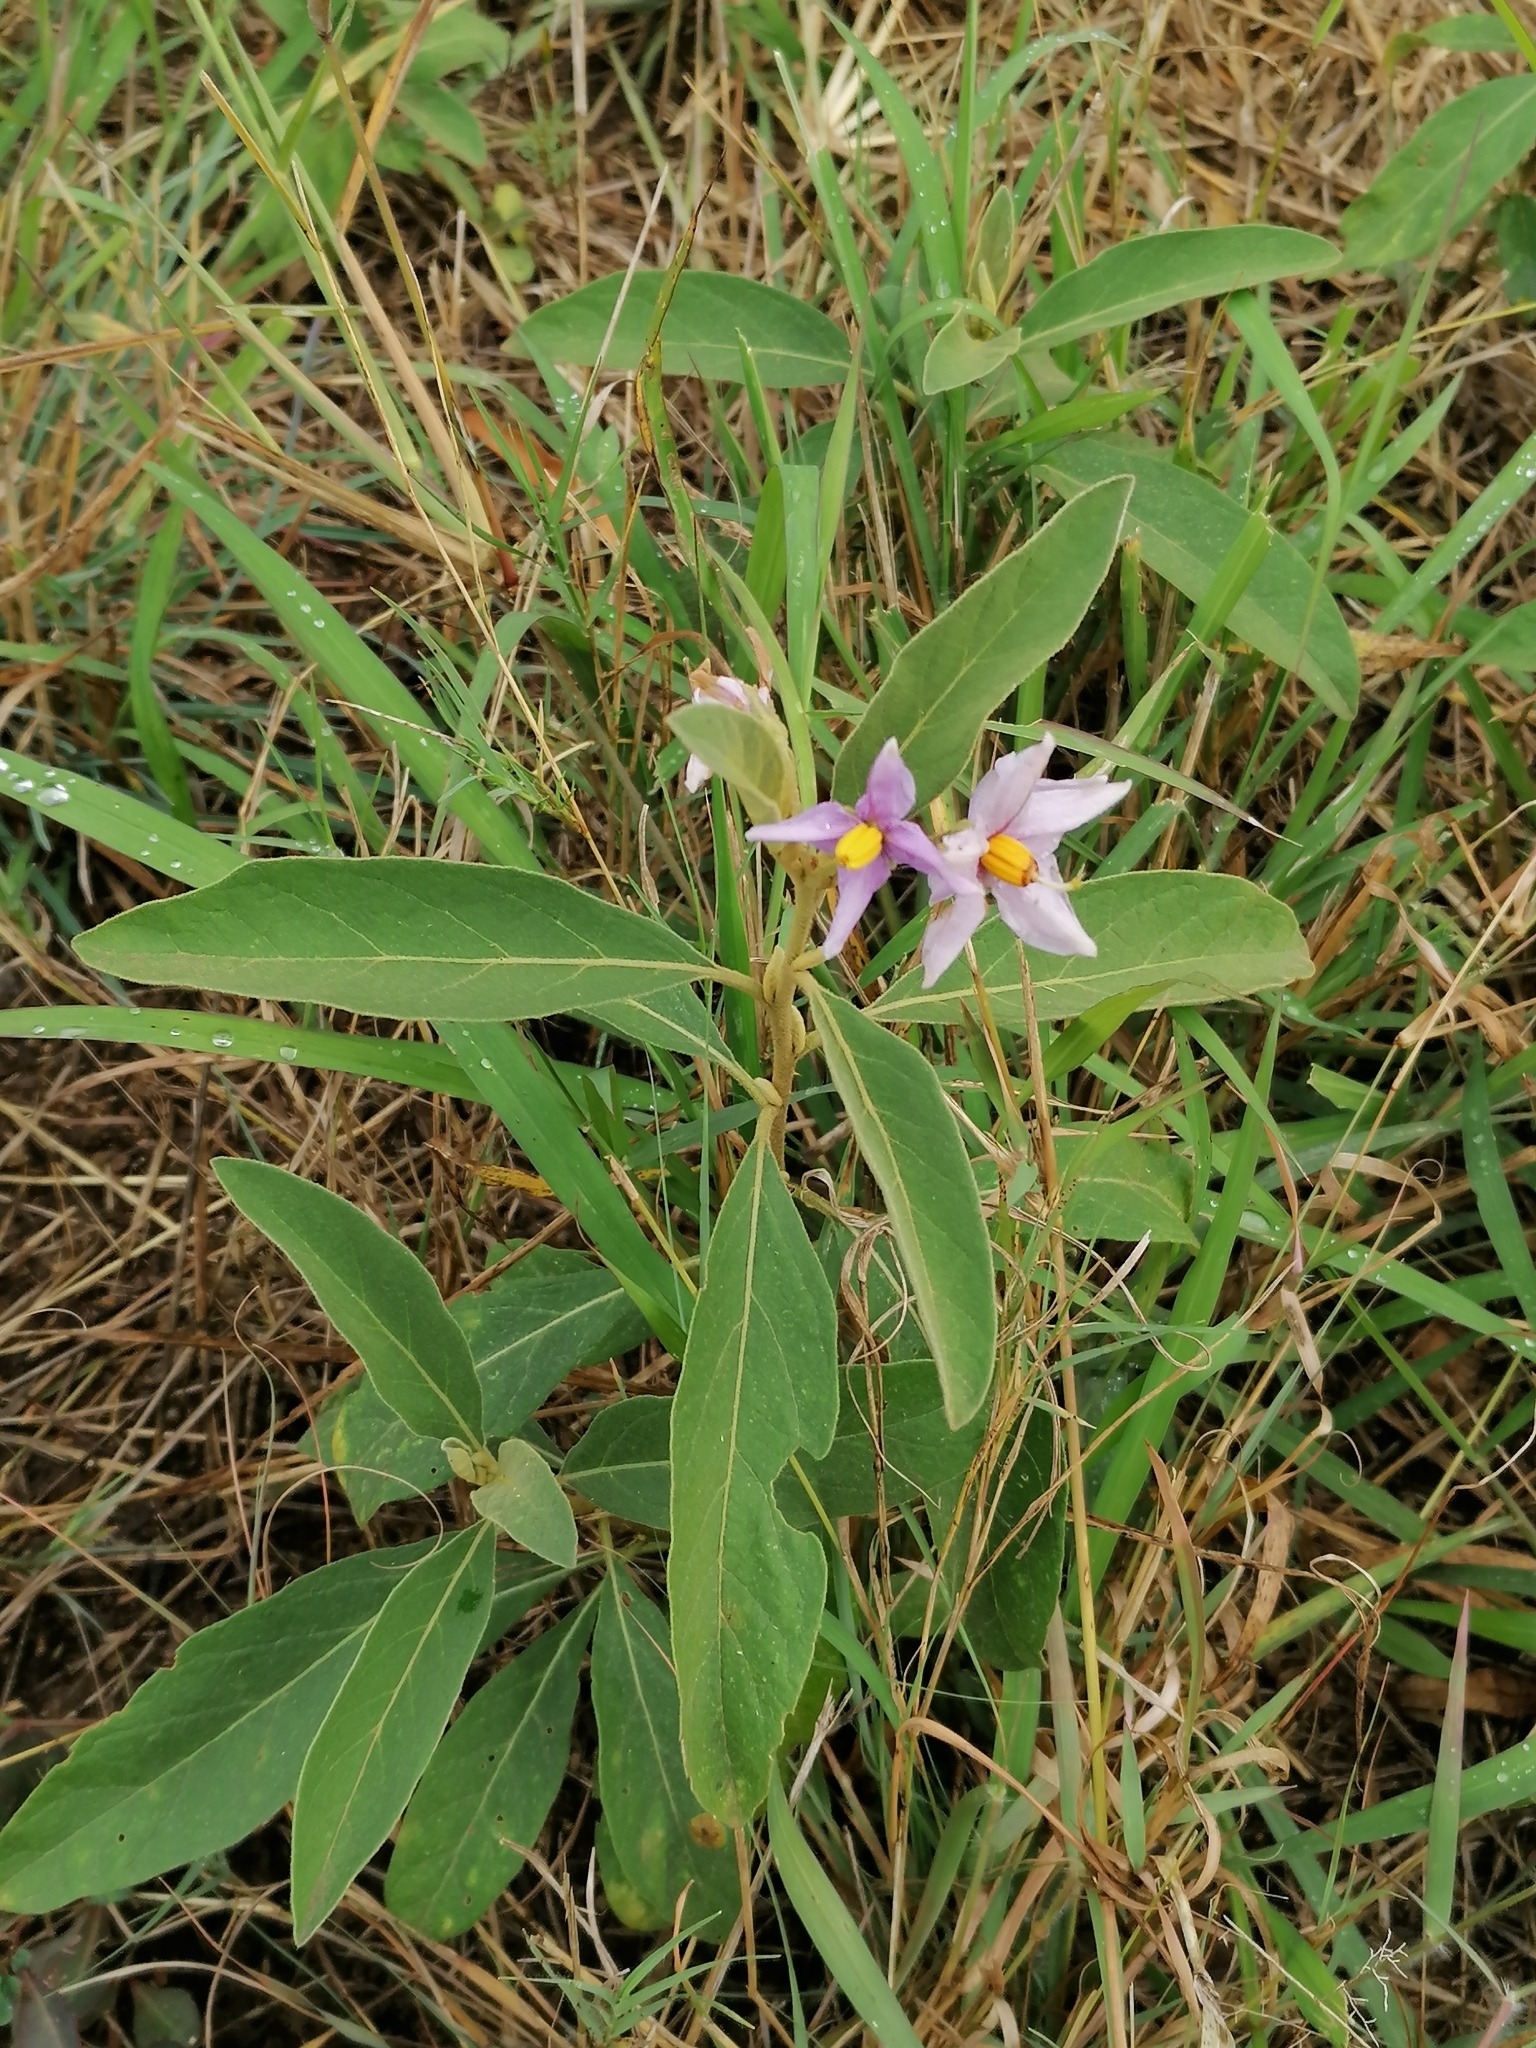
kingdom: Plantae
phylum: Tracheophyta
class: Magnoliopsida
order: Solanales
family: Solanaceae
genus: Solanum
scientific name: Solanum campylacanthum
